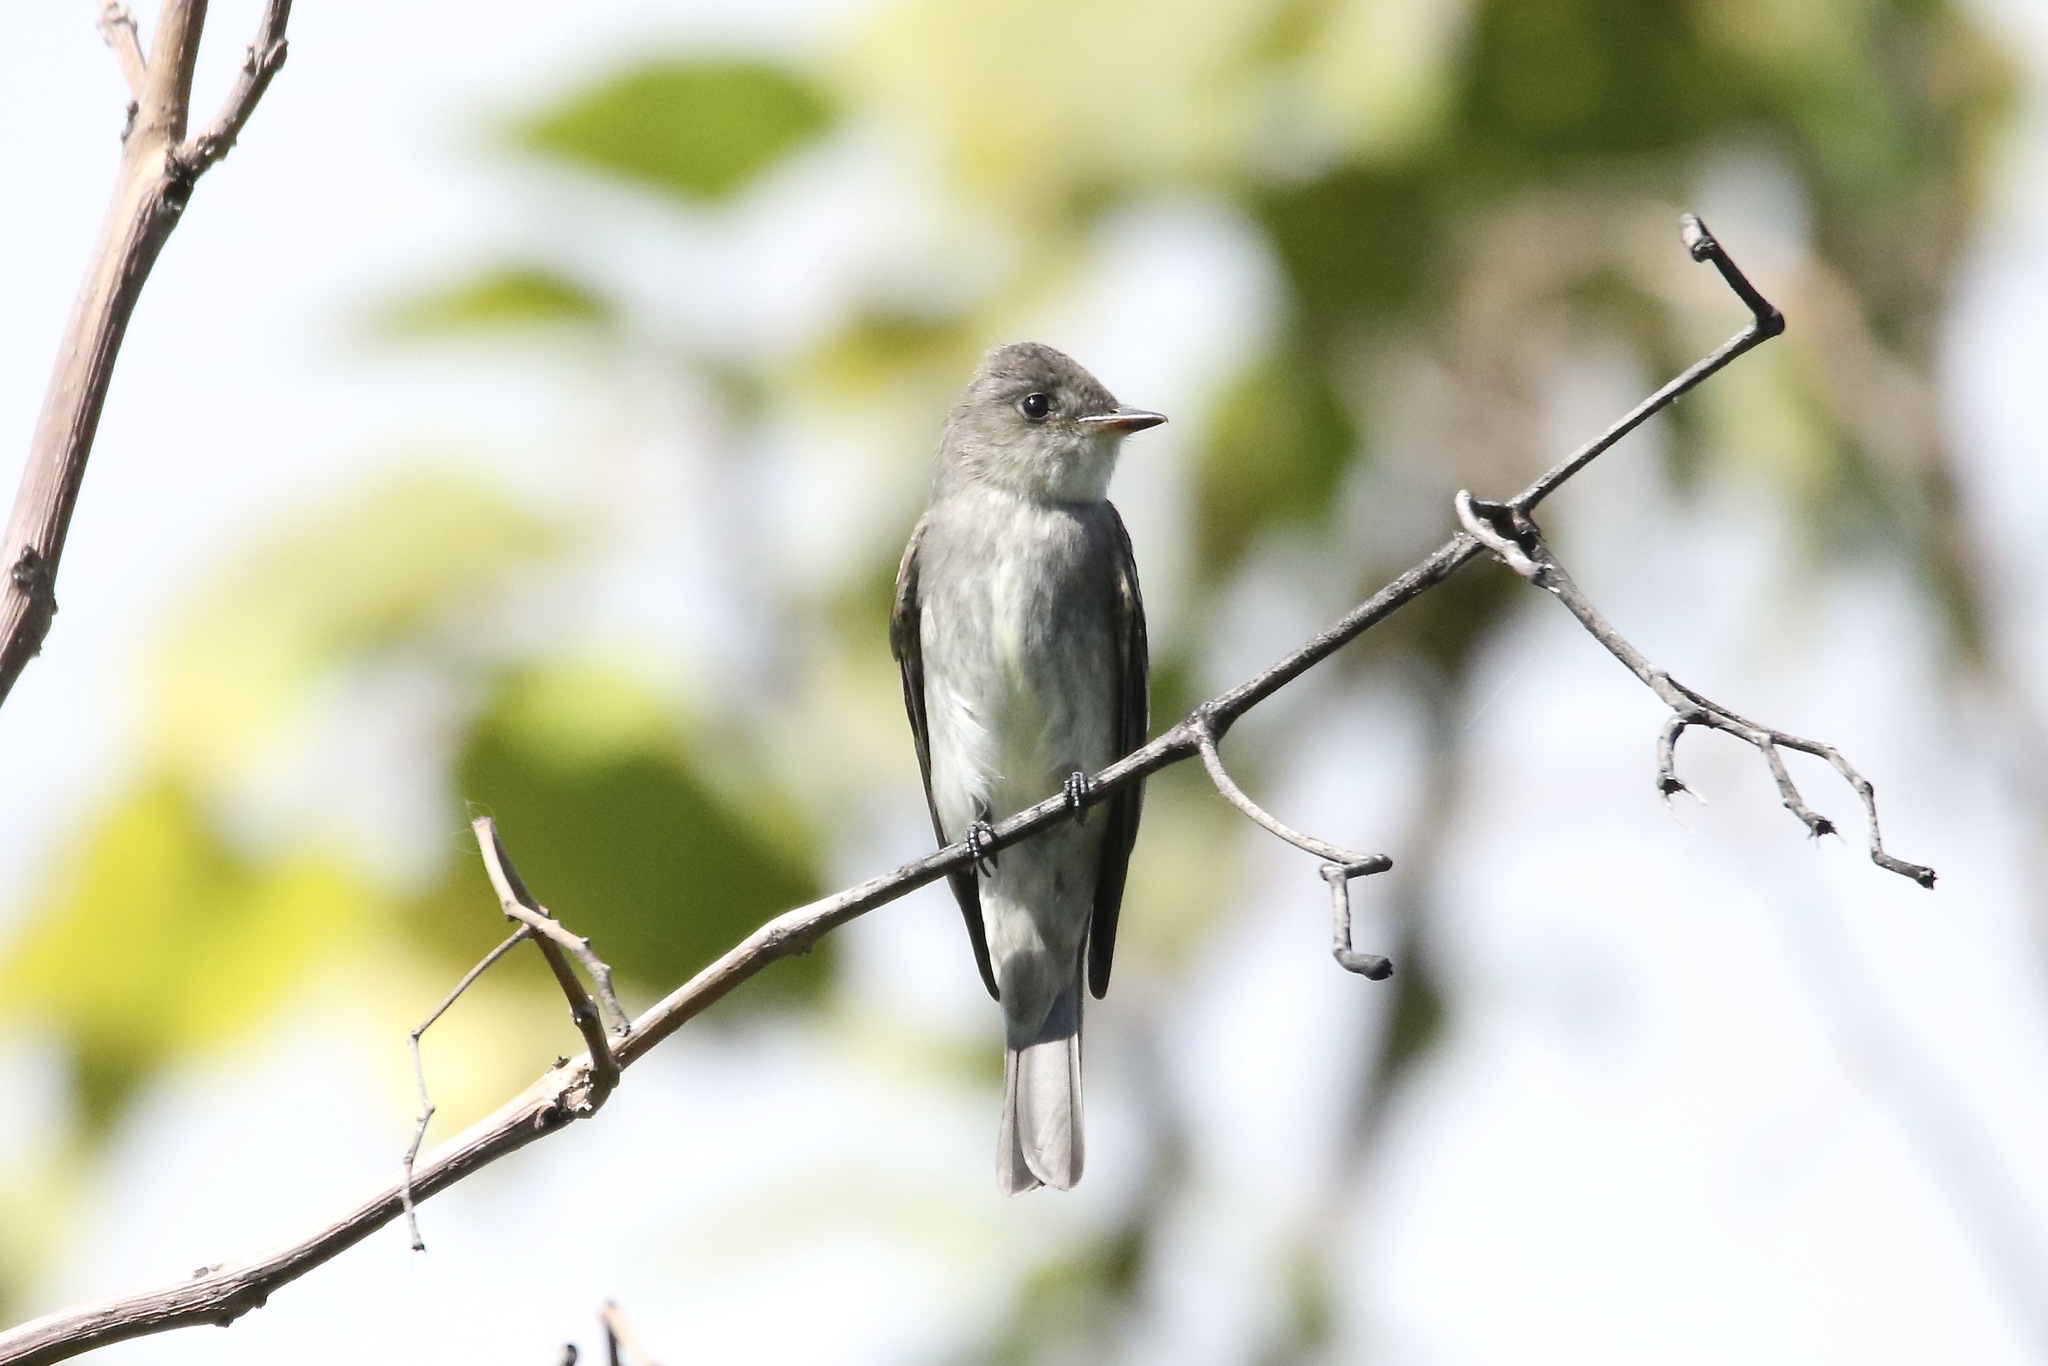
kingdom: Animalia
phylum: Chordata
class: Aves
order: Passeriformes
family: Tyrannidae
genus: Contopus
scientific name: Contopus virens
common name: Eastern wood-pewee
